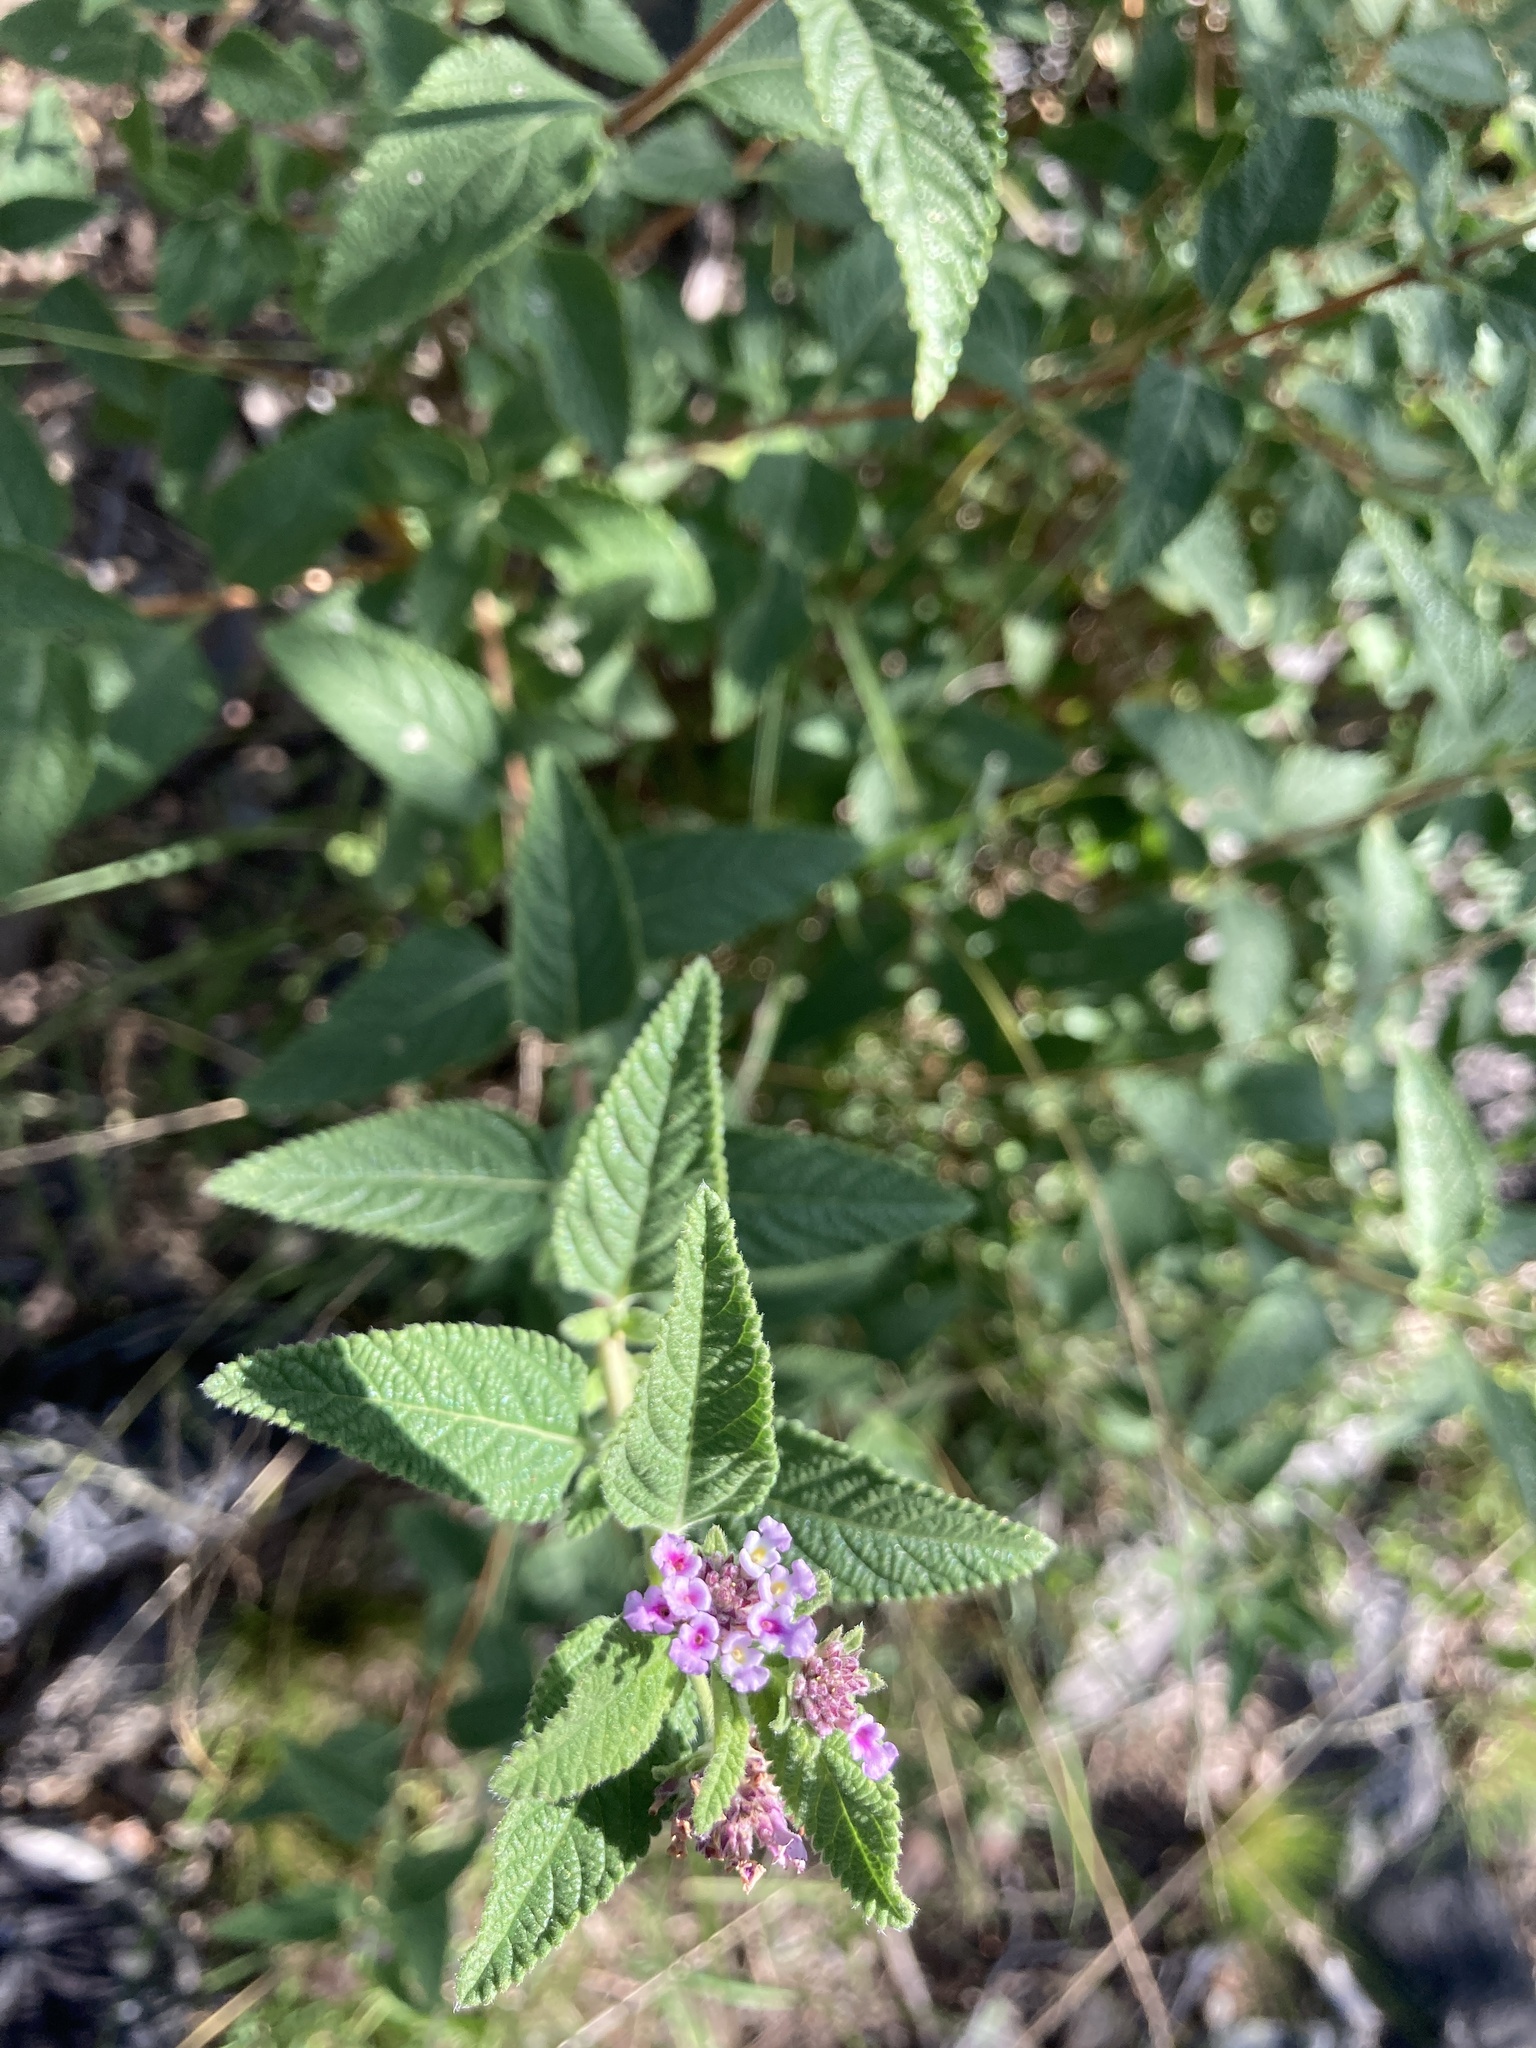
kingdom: Plantae
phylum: Tracheophyta
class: Magnoliopsida
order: Lamiales
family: Verbenaceae
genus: Lippia
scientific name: Lippia junelliana
